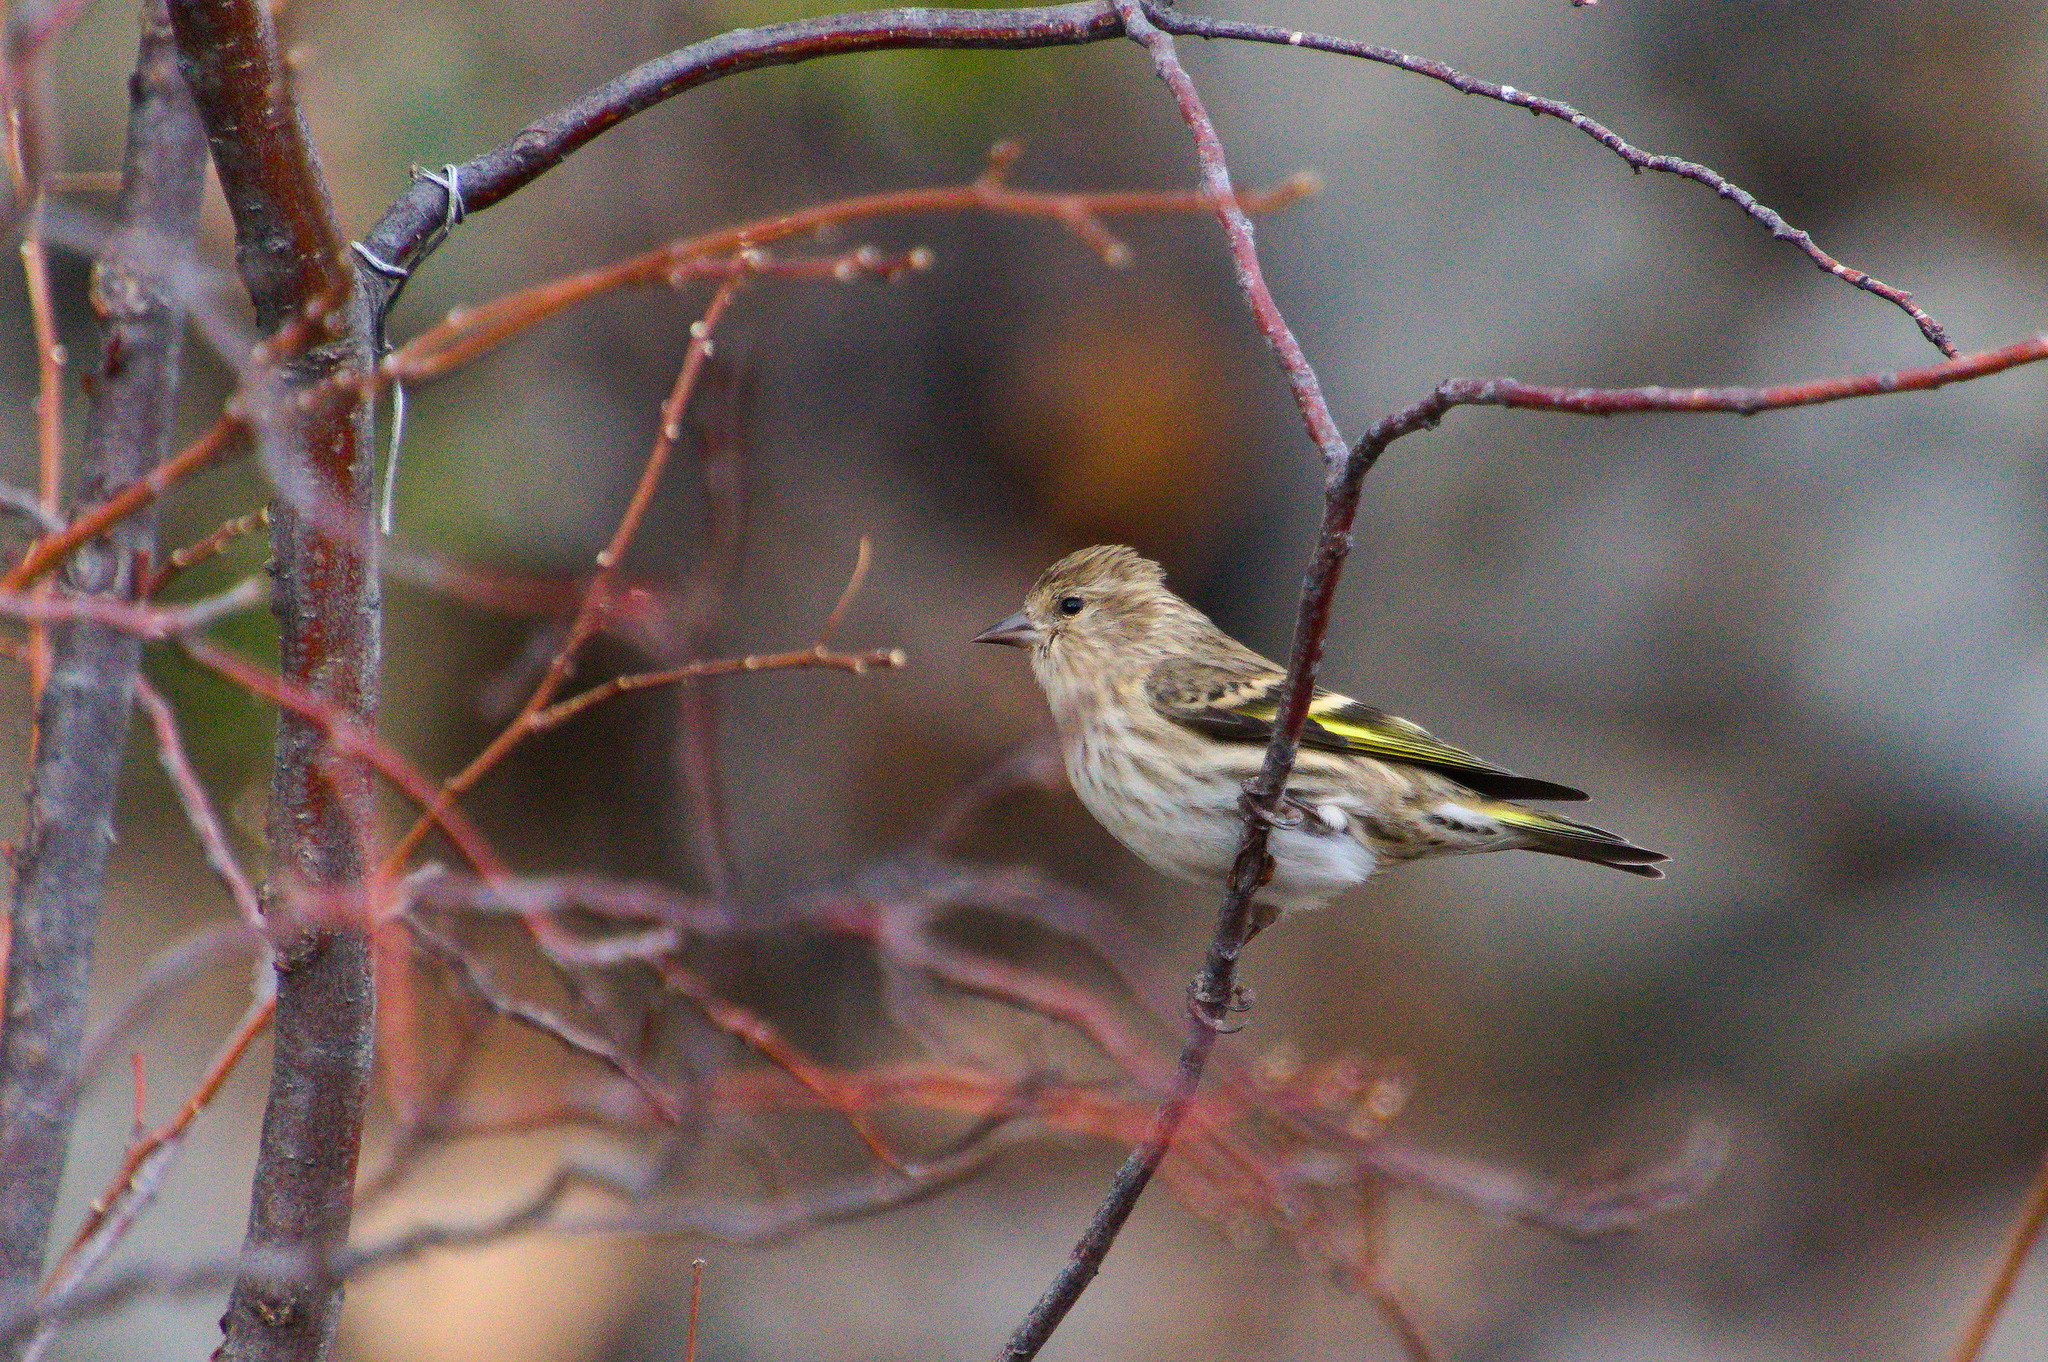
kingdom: Animalia
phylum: Chordata
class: Aves
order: Passeriformes
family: Fringillidae
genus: Spinus
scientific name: Spinus pinus
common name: Pine siskin
